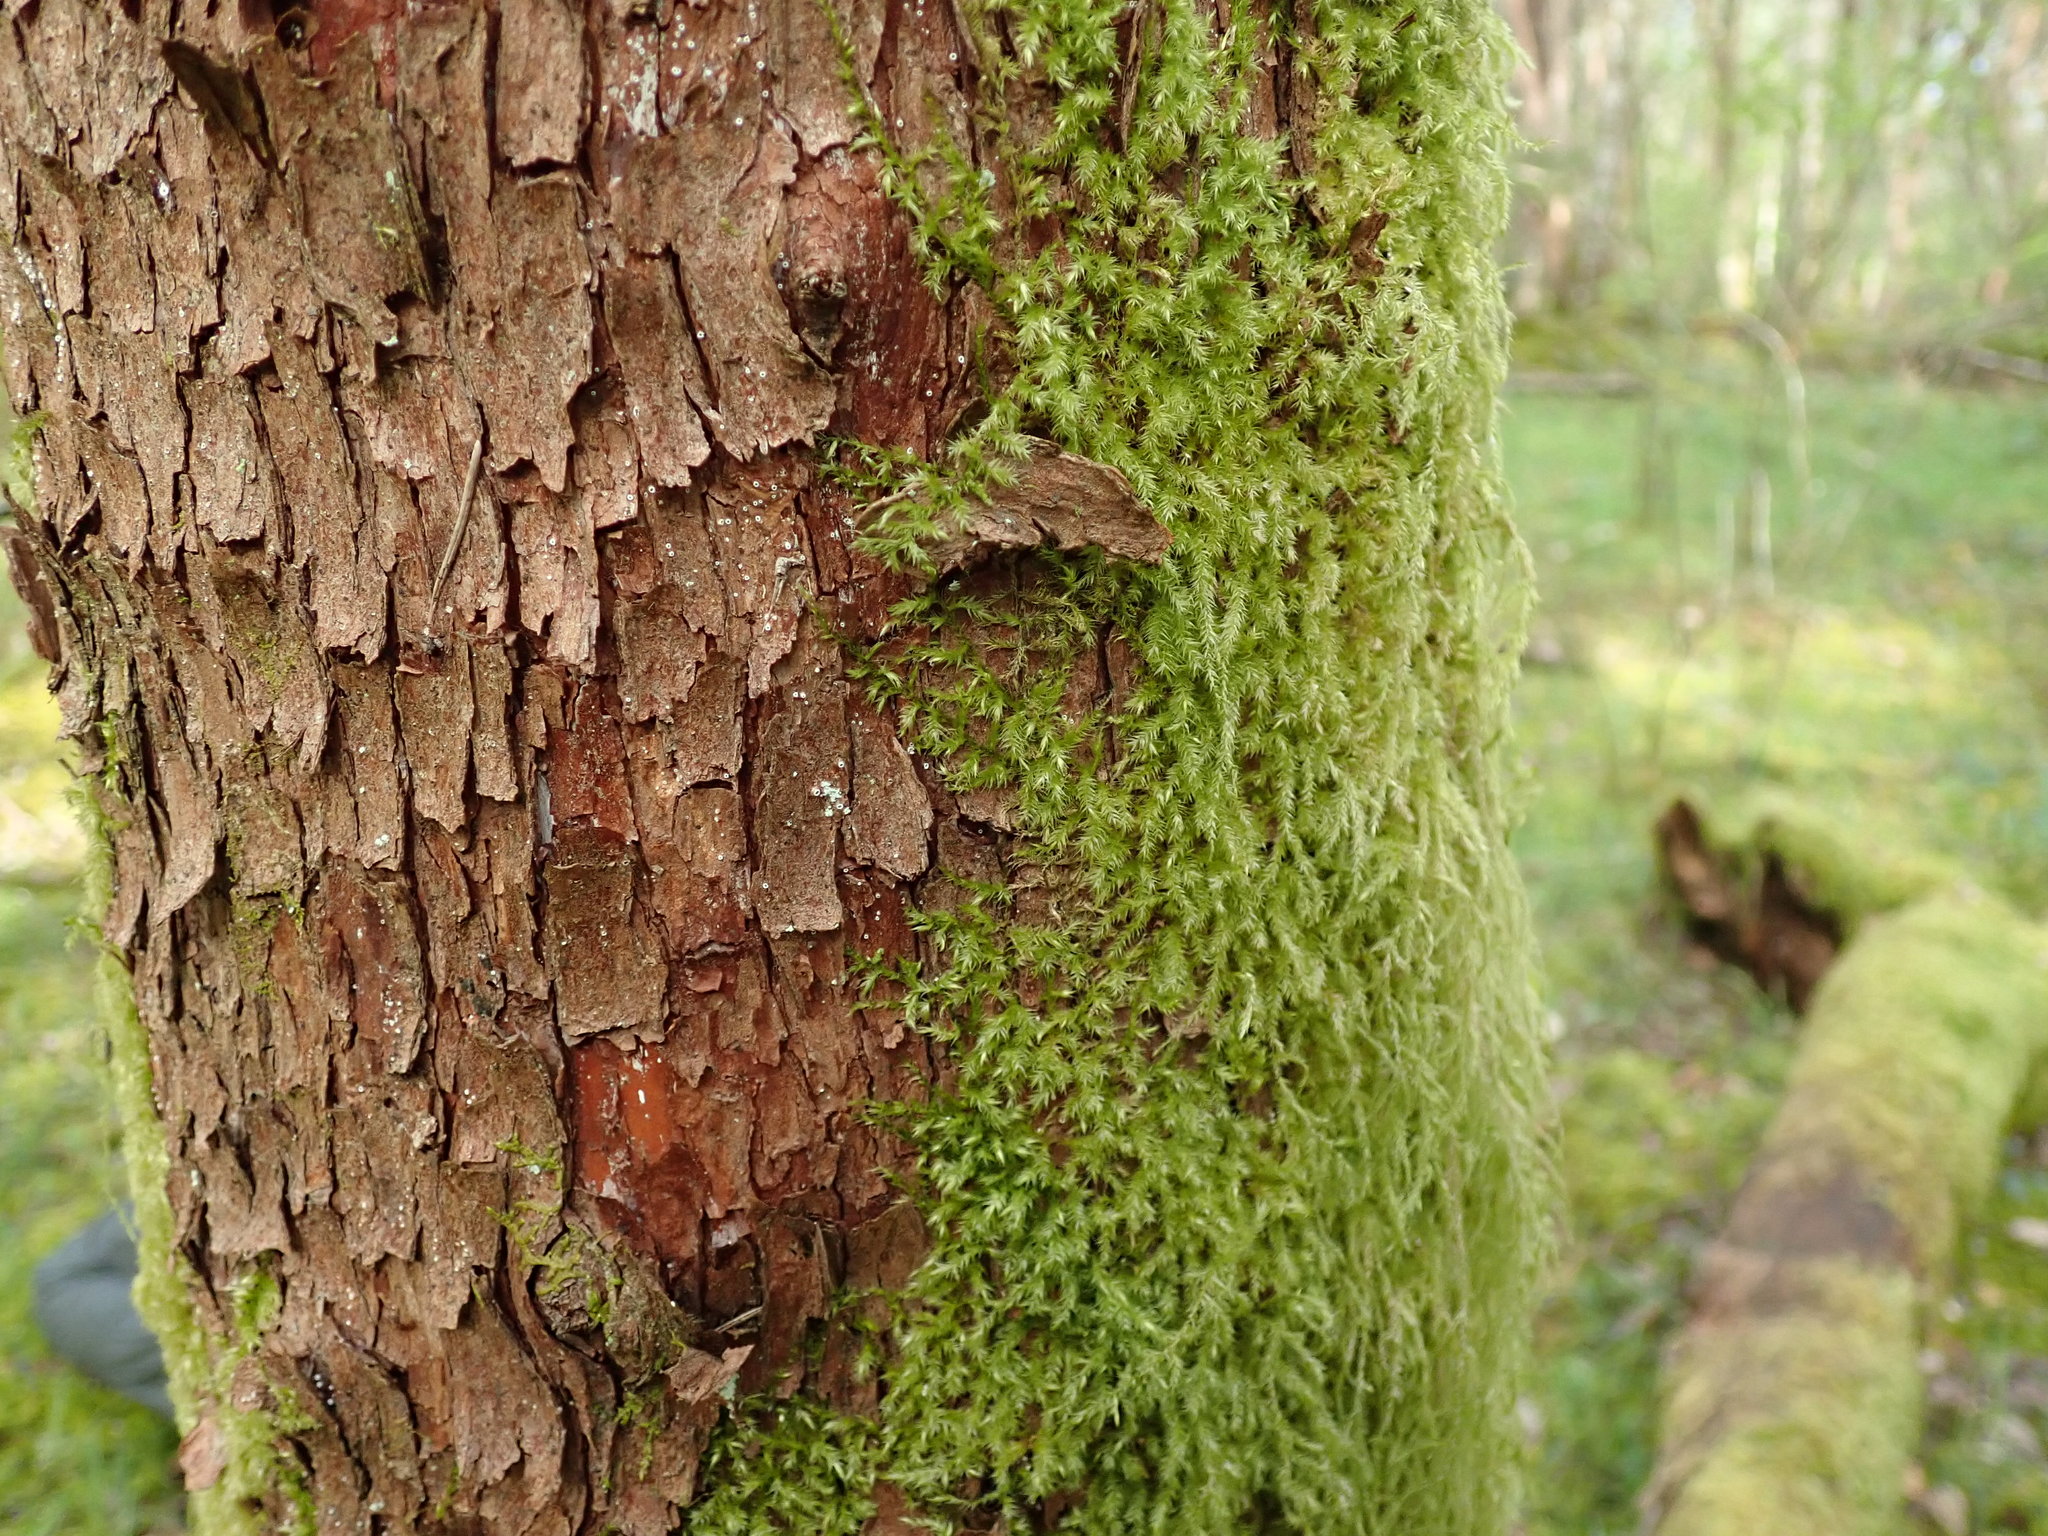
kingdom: Plantae
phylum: Bryophyta
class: Bryopsida
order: Hypnales
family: Lembophyllaceae
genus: Pseudisothecium
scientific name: Pseudisothecium stoloniferum
